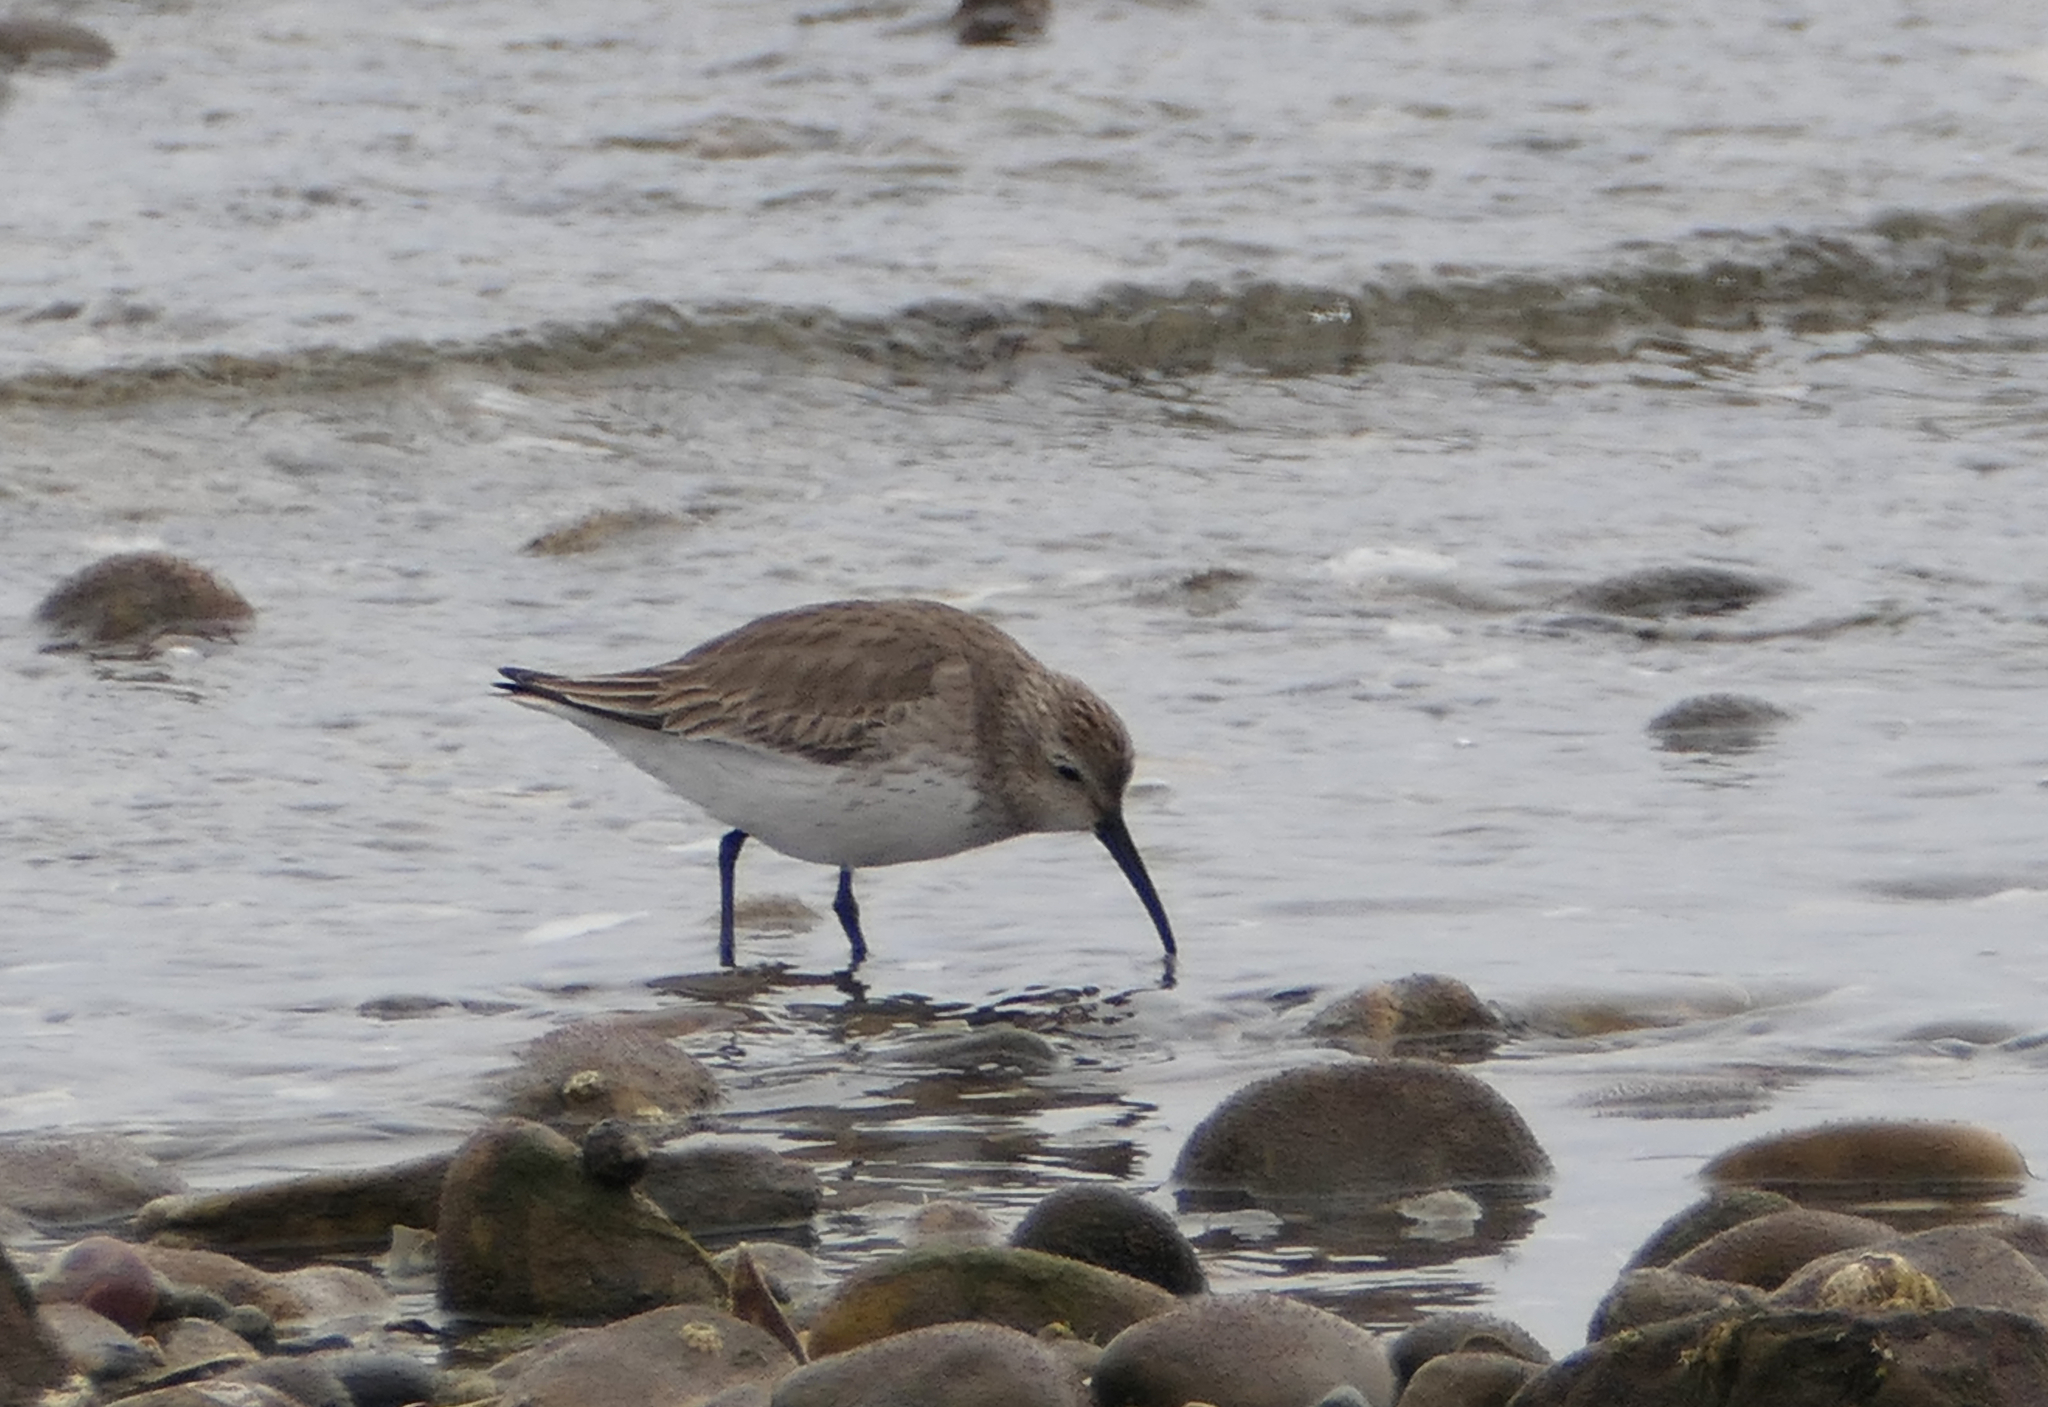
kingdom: Animalia
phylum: Chordata
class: Aves
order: Charadriiformes
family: Scolopacidae
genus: Calidris
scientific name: Calidris alpina
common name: Dunlin
